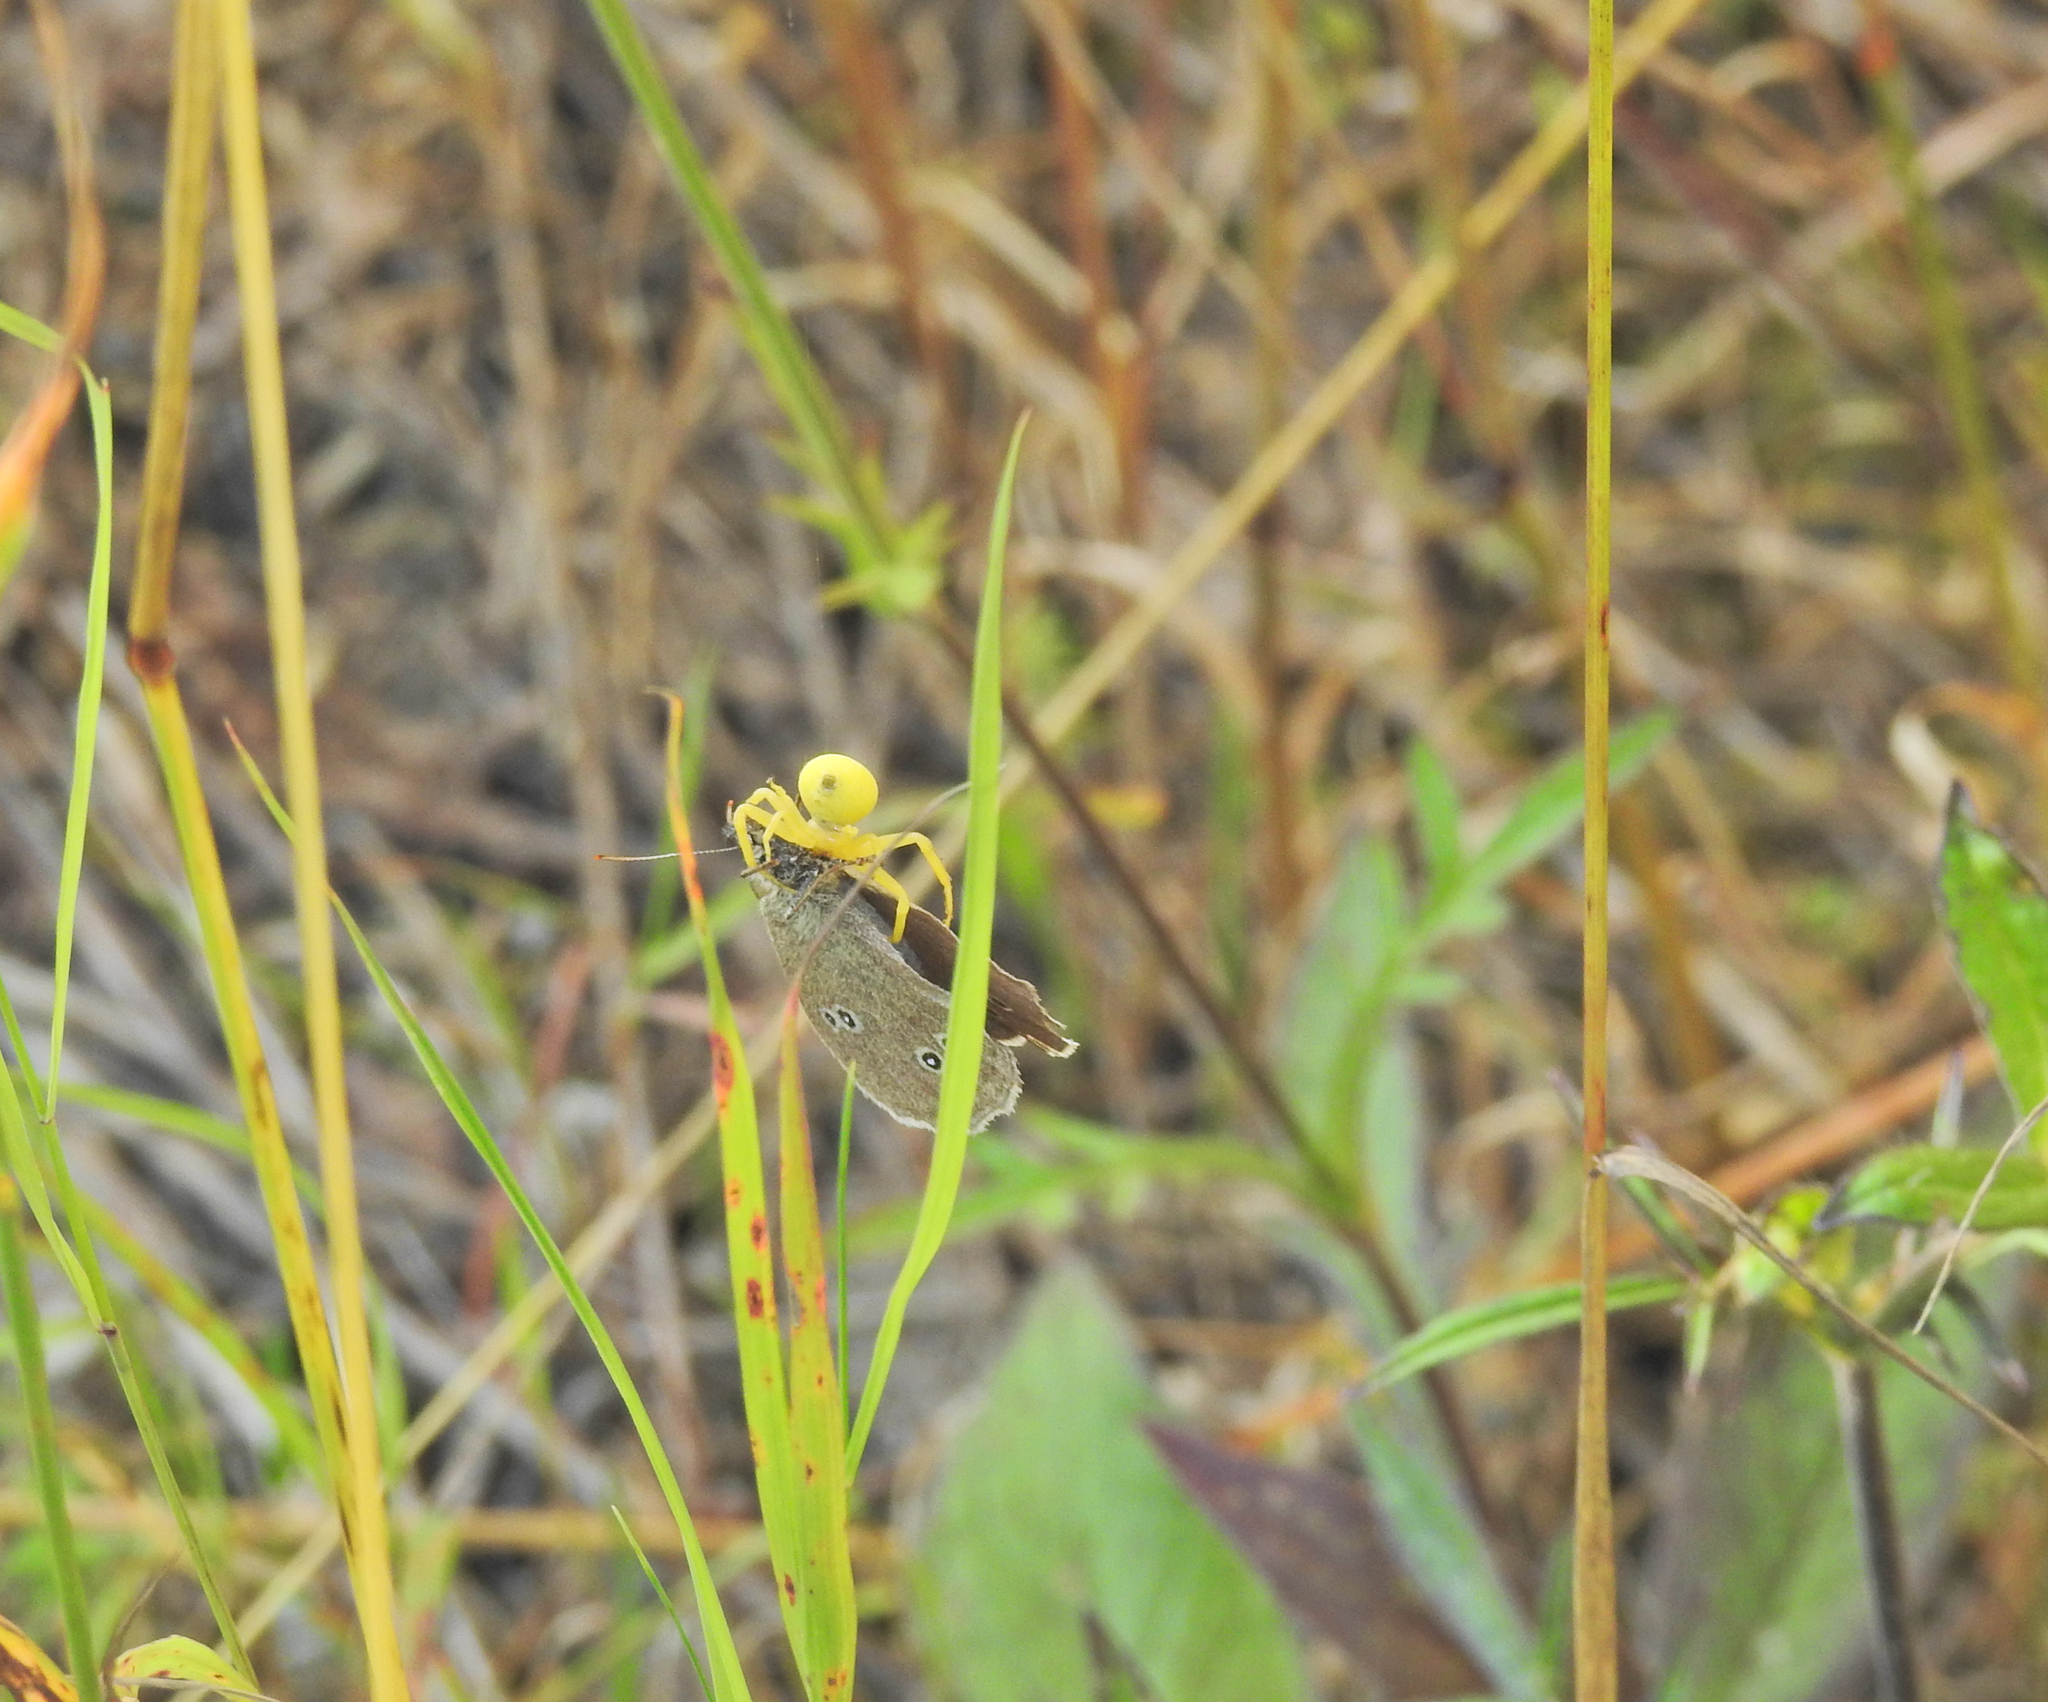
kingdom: Animalia
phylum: Arthropoda
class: Insecta
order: Lepidoptera
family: Nymphalidae
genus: Aphantopus
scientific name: Aphantopus hyperantus
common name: Ringlet
